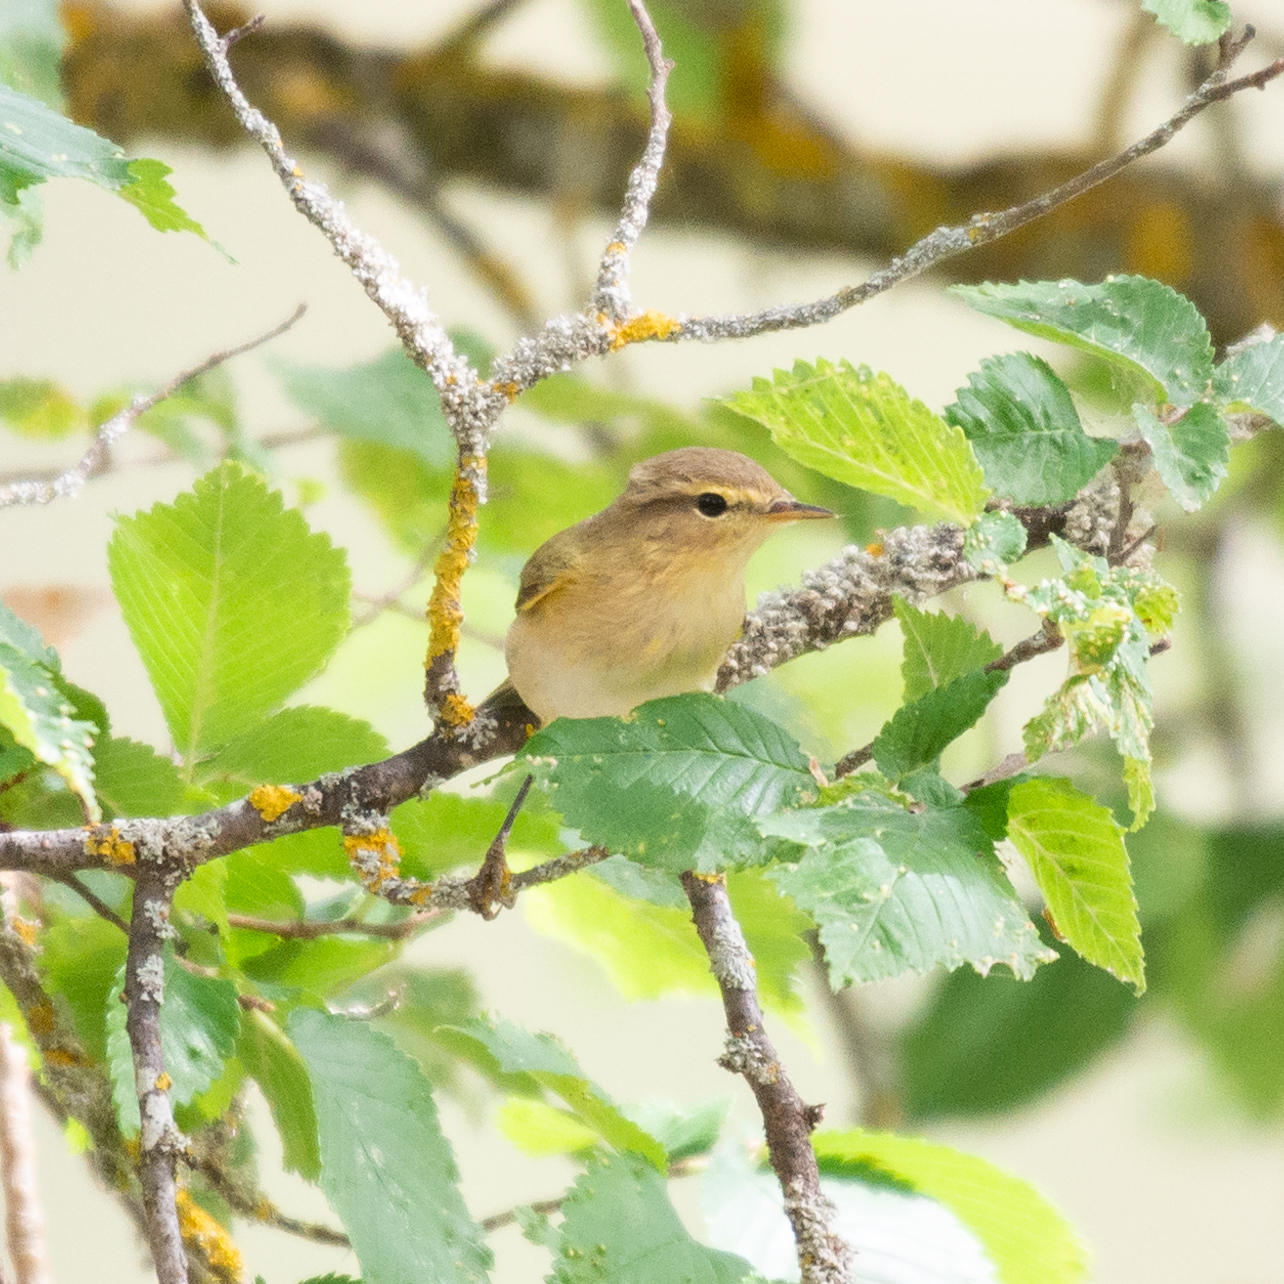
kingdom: Animalia
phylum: Chordata
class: Aves
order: Passeriformes
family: Phylloscopidae
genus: Phylloscopus
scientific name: Phylloscopus bonelli
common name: Western bonelli's warbler
